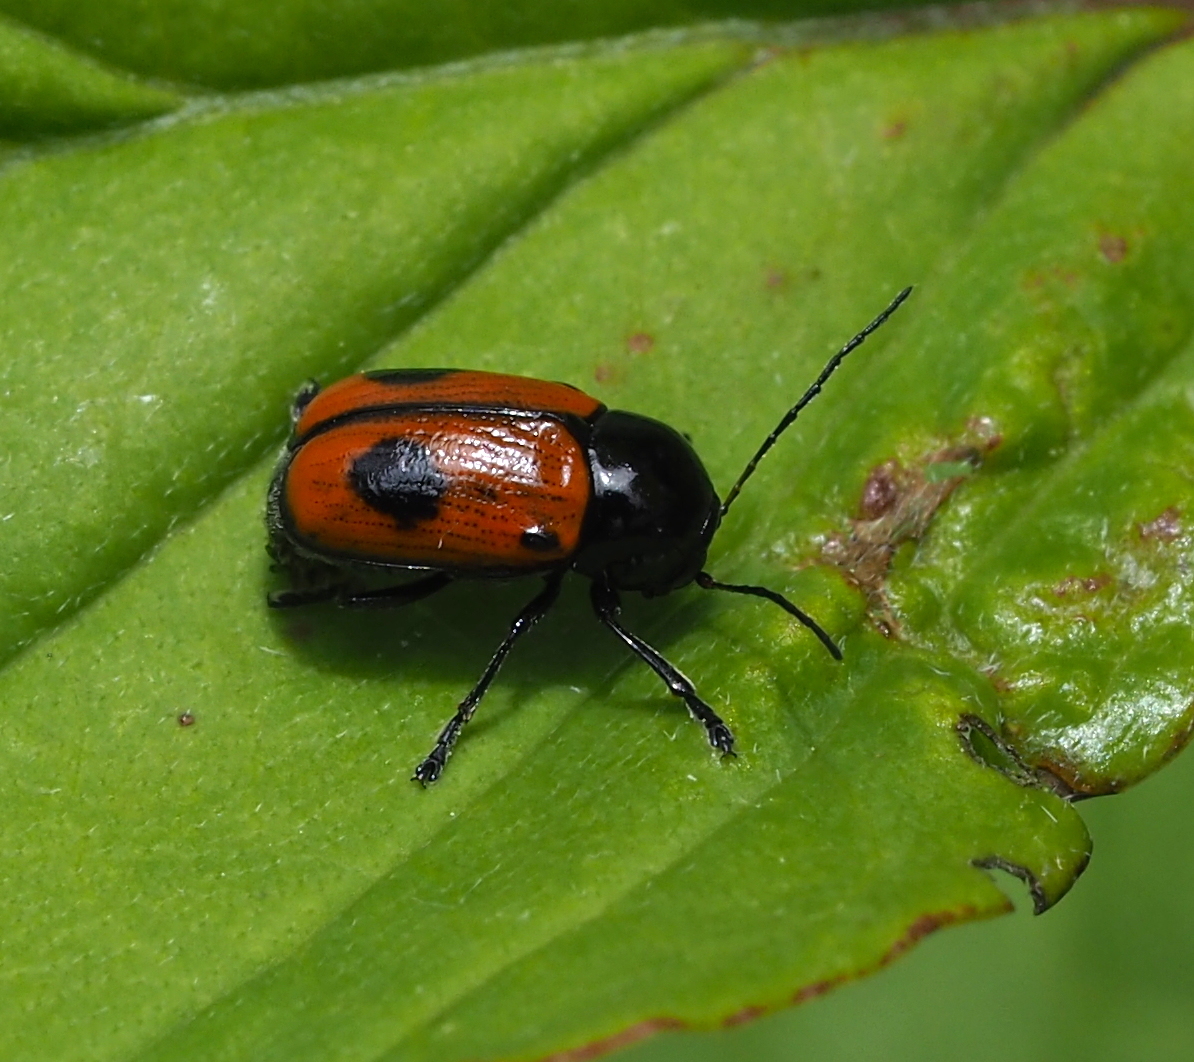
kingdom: Animalia
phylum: Arthropoda
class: Insecta
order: Coleoptera
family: Chrysomelidae
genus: Chiridopsis
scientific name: Chiridopsis bipunctata
